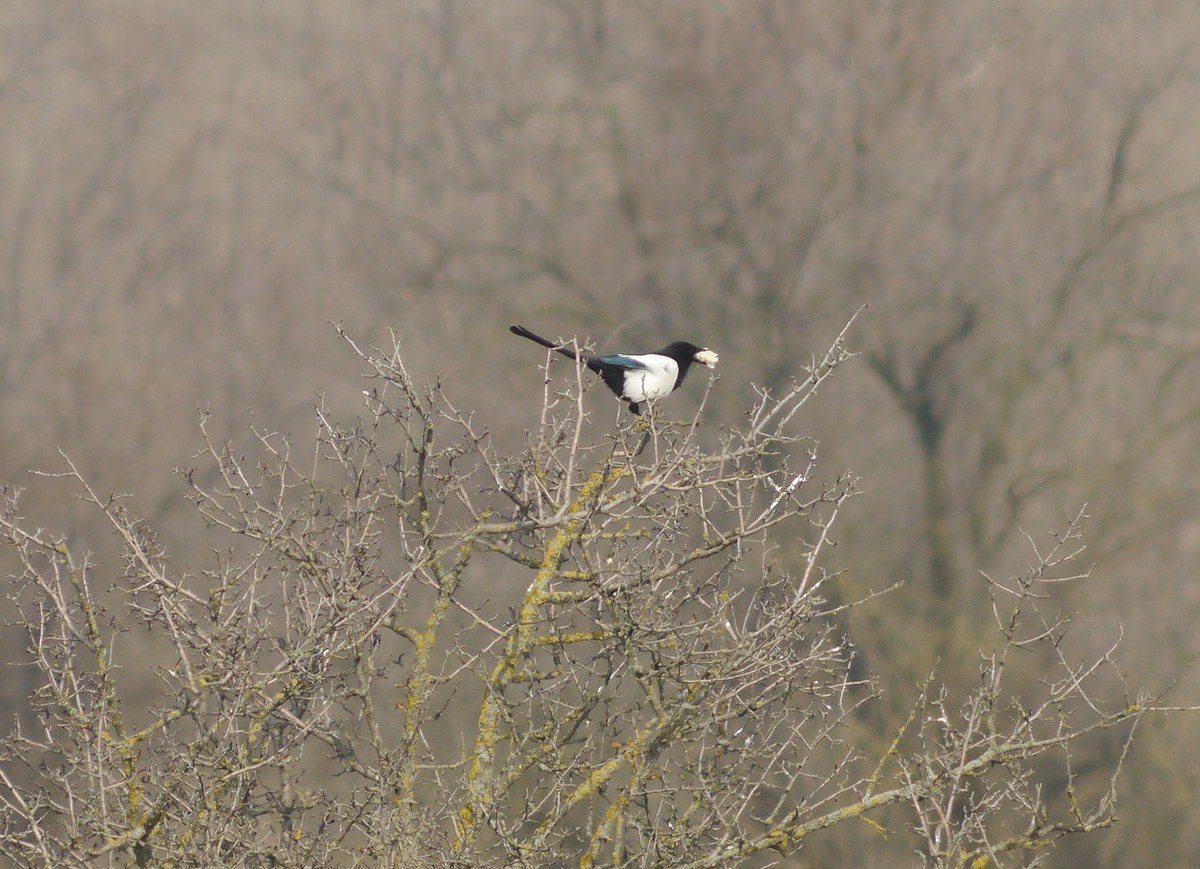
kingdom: Animalia
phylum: Chordata
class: Aves
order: Passeriformes
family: Corvidae
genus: Pica
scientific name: Pica pica
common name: Eurasian magpie
